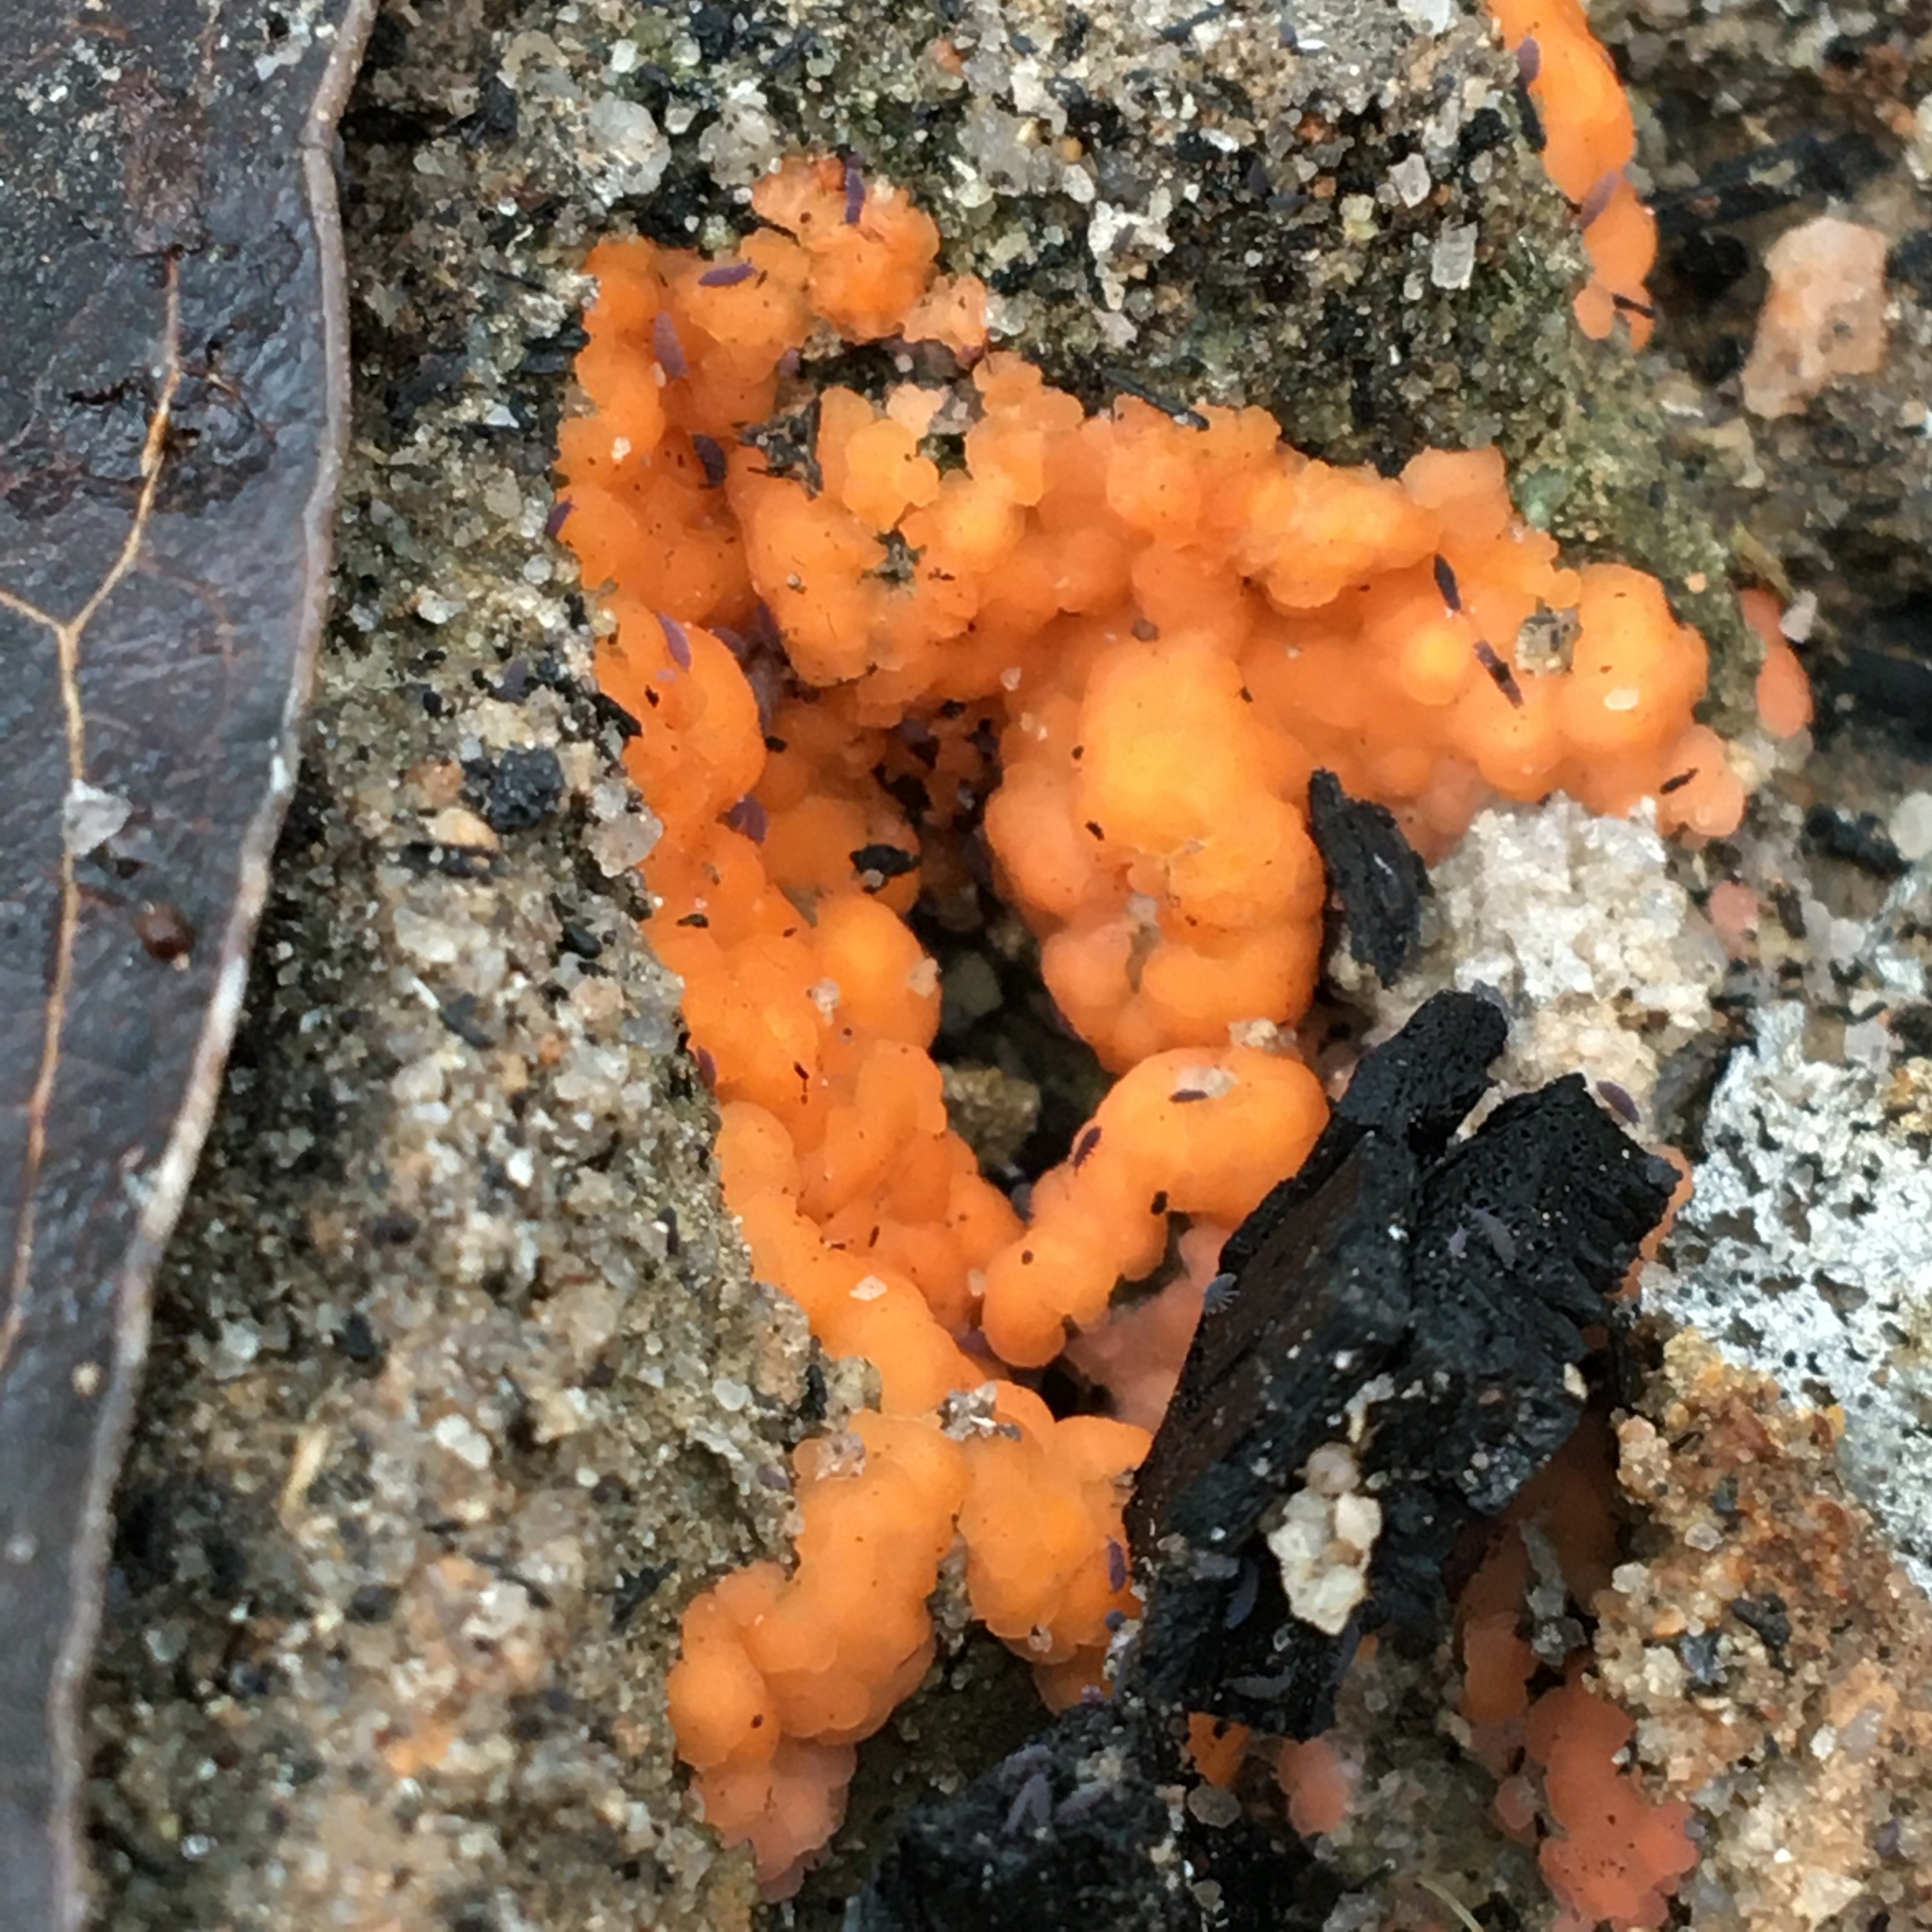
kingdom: Fungi
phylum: Ascomycota
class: Pezizomycetes
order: Pezizales
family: Pyronemataceae
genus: Pyronema
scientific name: Pyronema omphalodes
